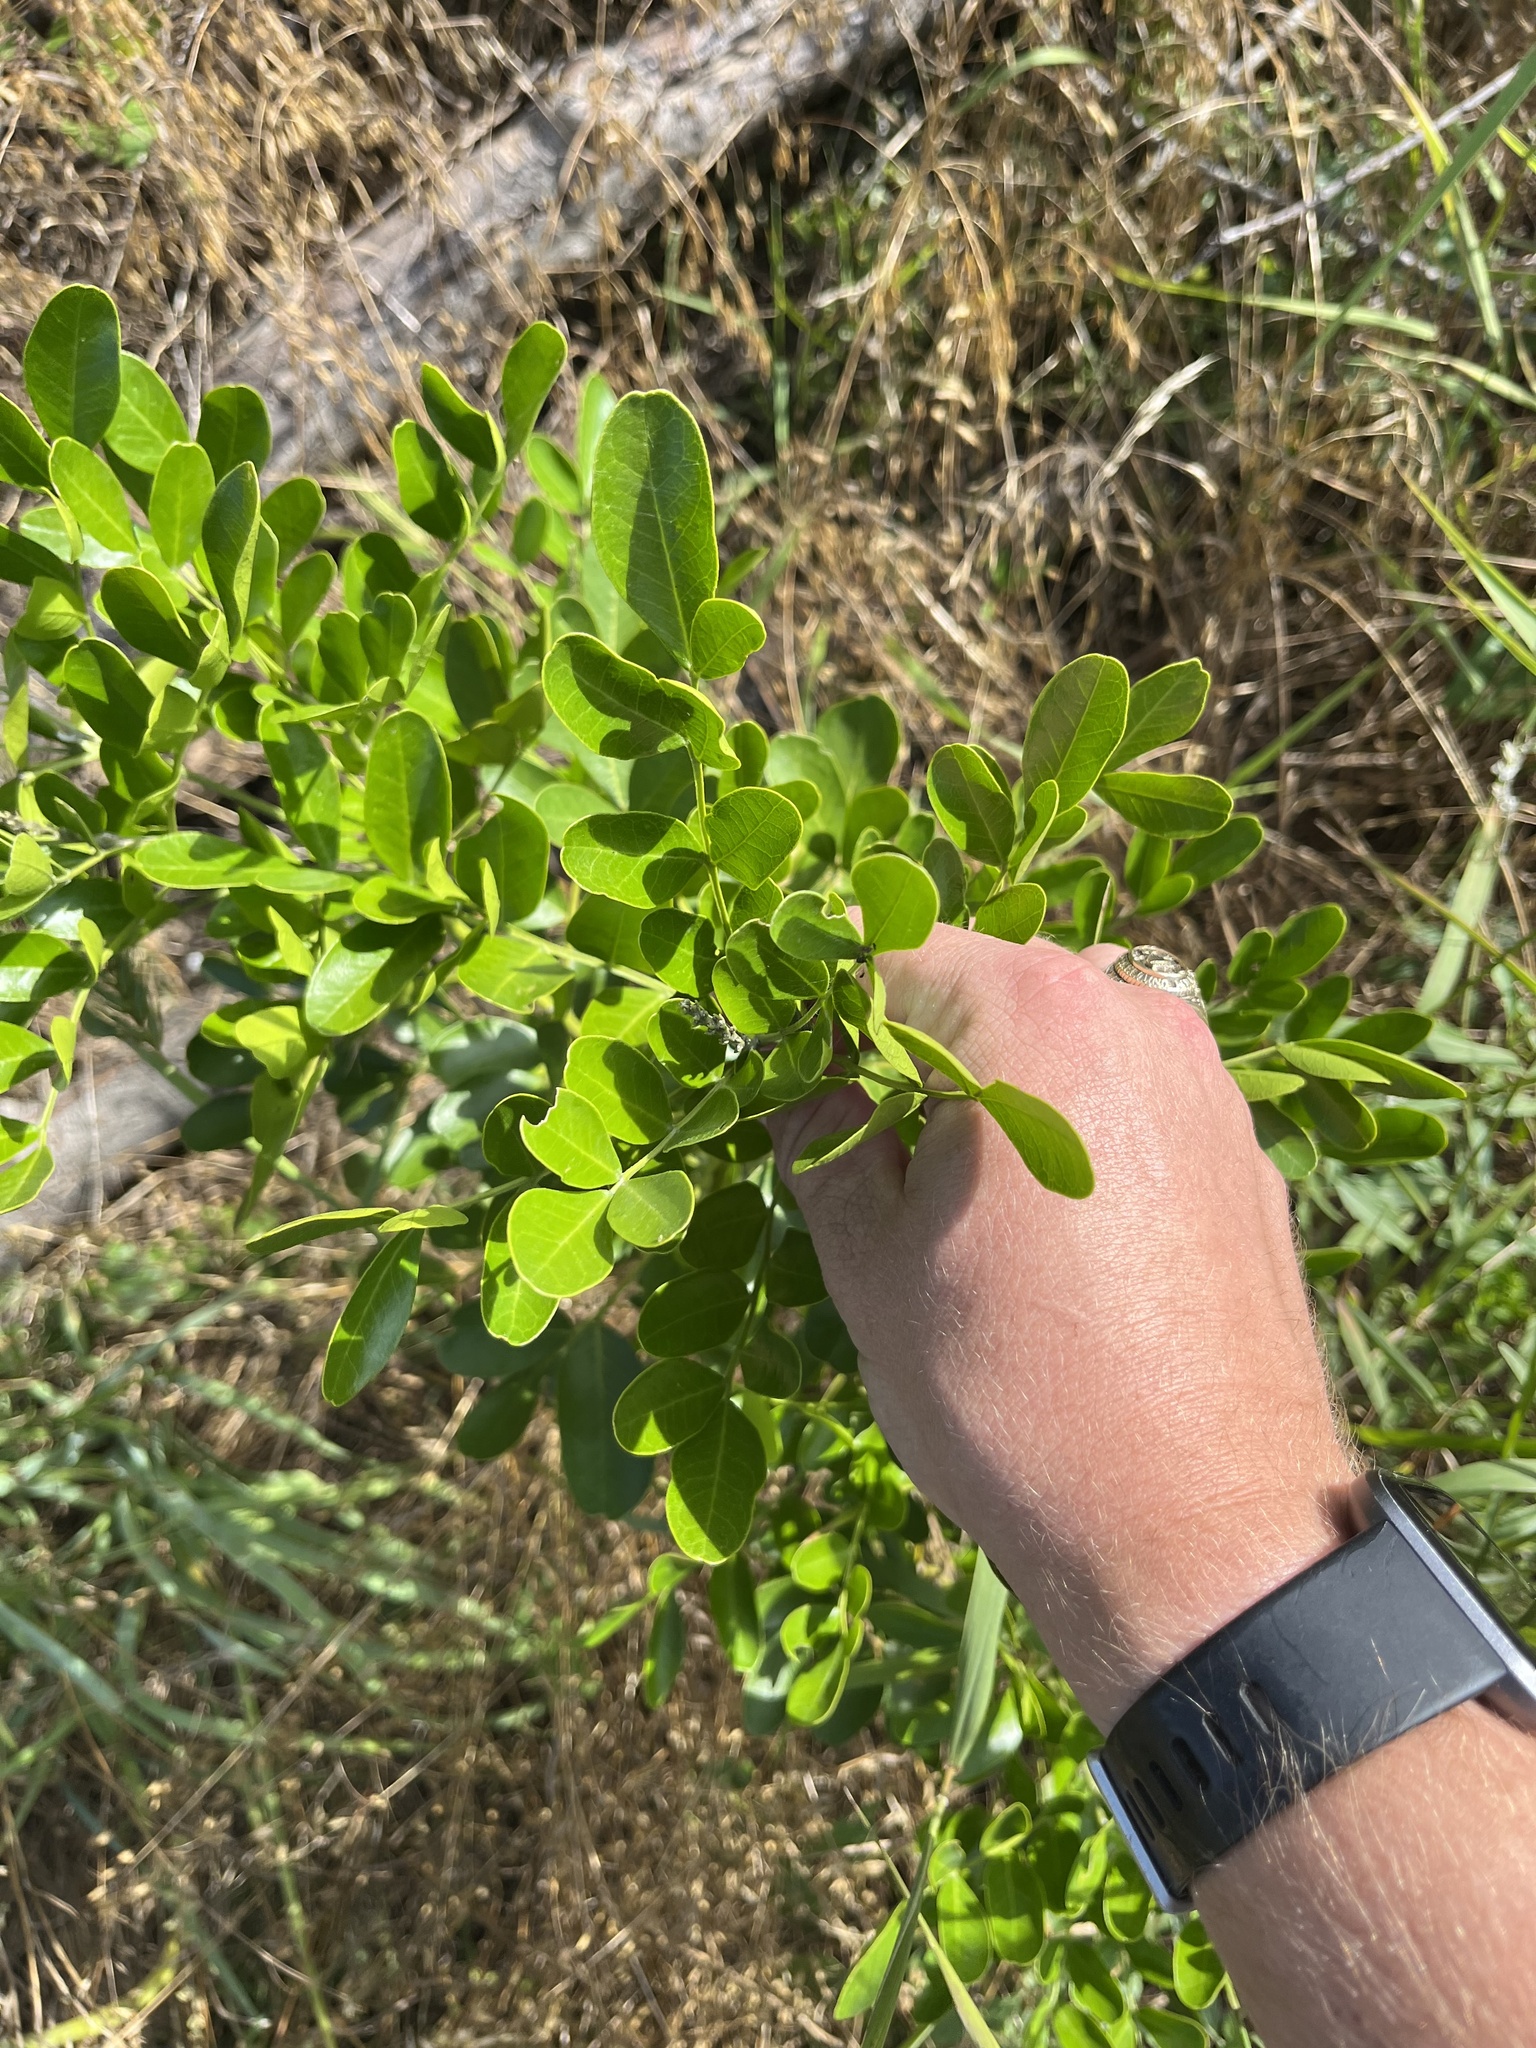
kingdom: Plantae
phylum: Tracheophyta
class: Magnoliopsida
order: Fabales
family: Fabaceae
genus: Dermatophyllum
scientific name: Dermatophyllum secundiflorum
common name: Texas-mountain-laurel
